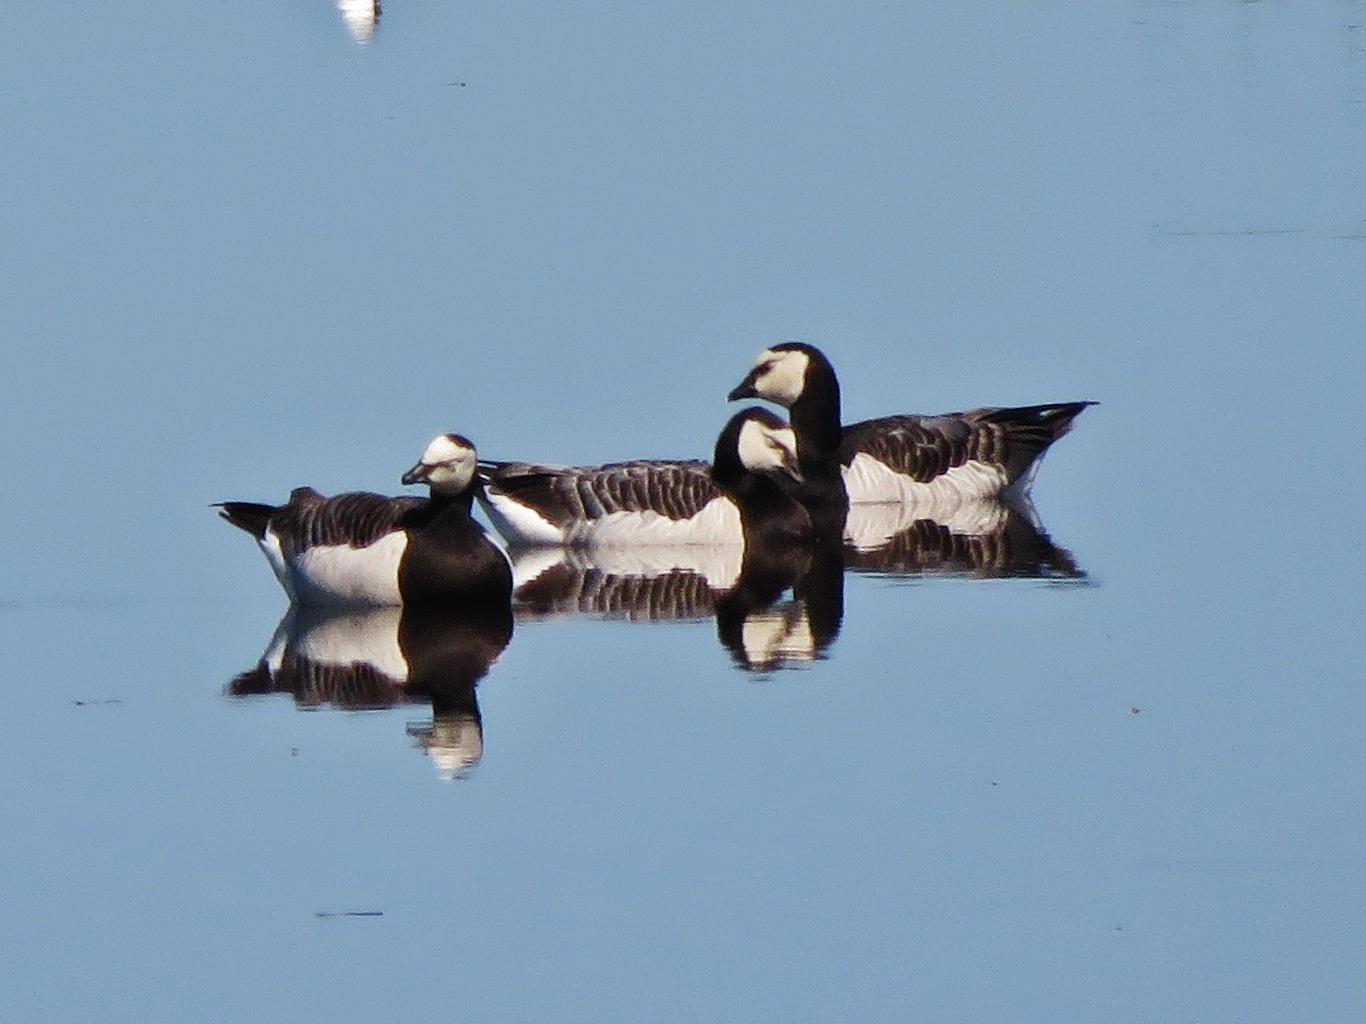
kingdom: Animalia
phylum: Chordata
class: Aves
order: Anseriformes
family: Anatidae
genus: Branta
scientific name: Branta leucopsis
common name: Barnacle goose
